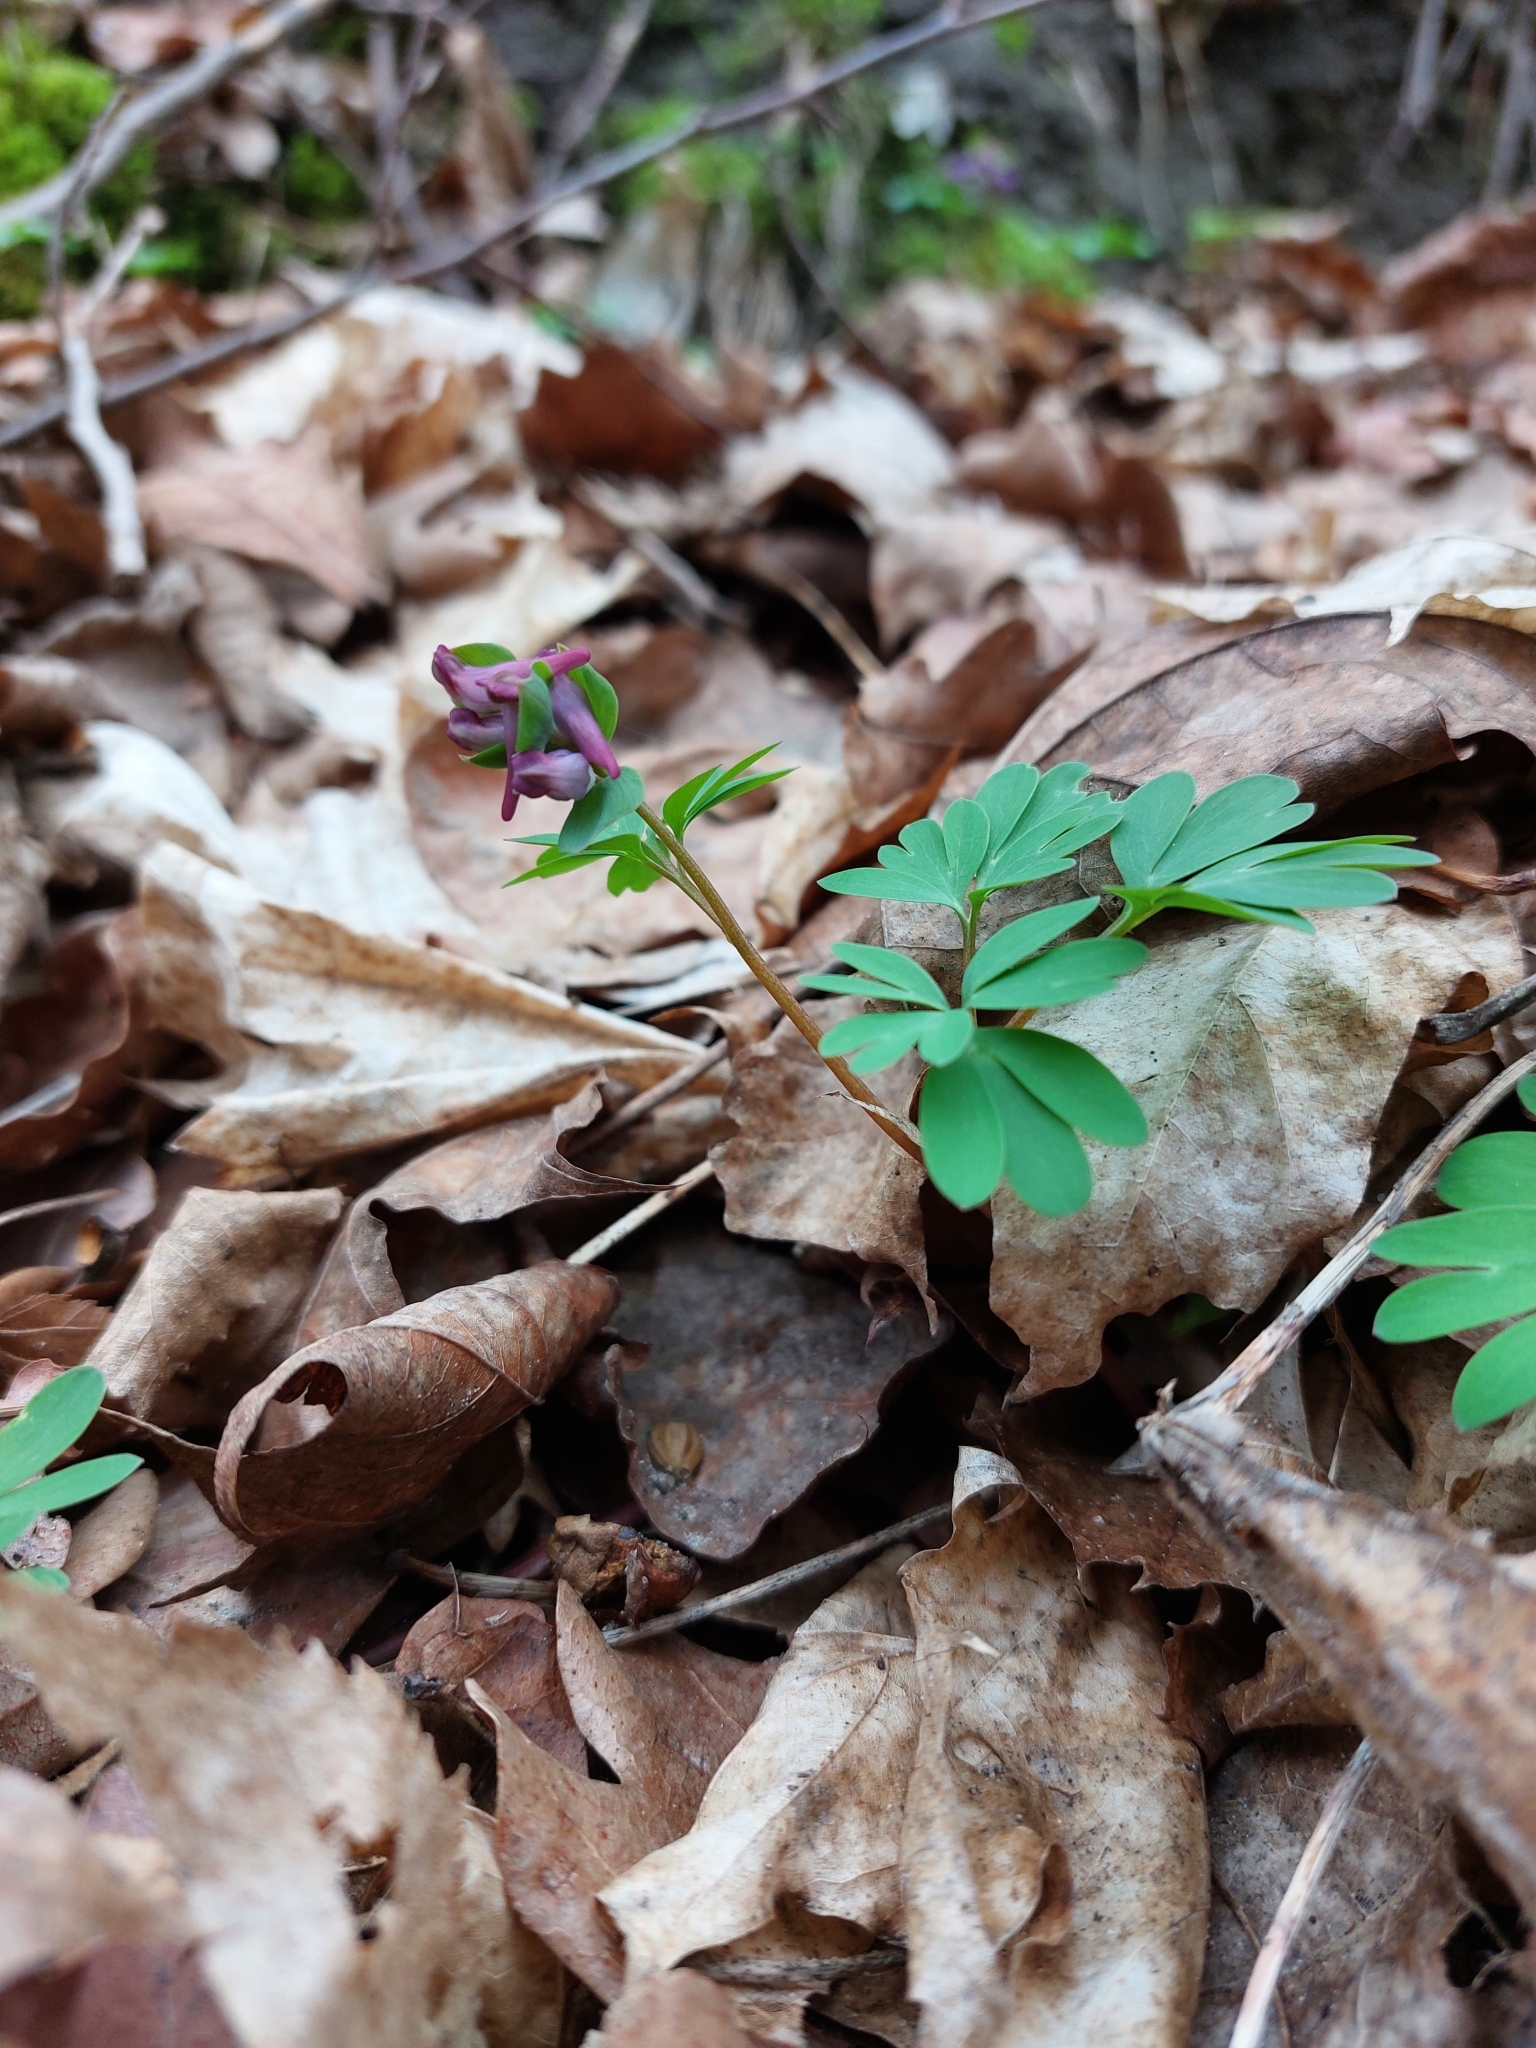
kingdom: Plantae
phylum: Tracheophyta
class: Magnoliopsida
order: Ranunculales
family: Papaveraceae
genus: Corydalis
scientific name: Corydalis intermedia
